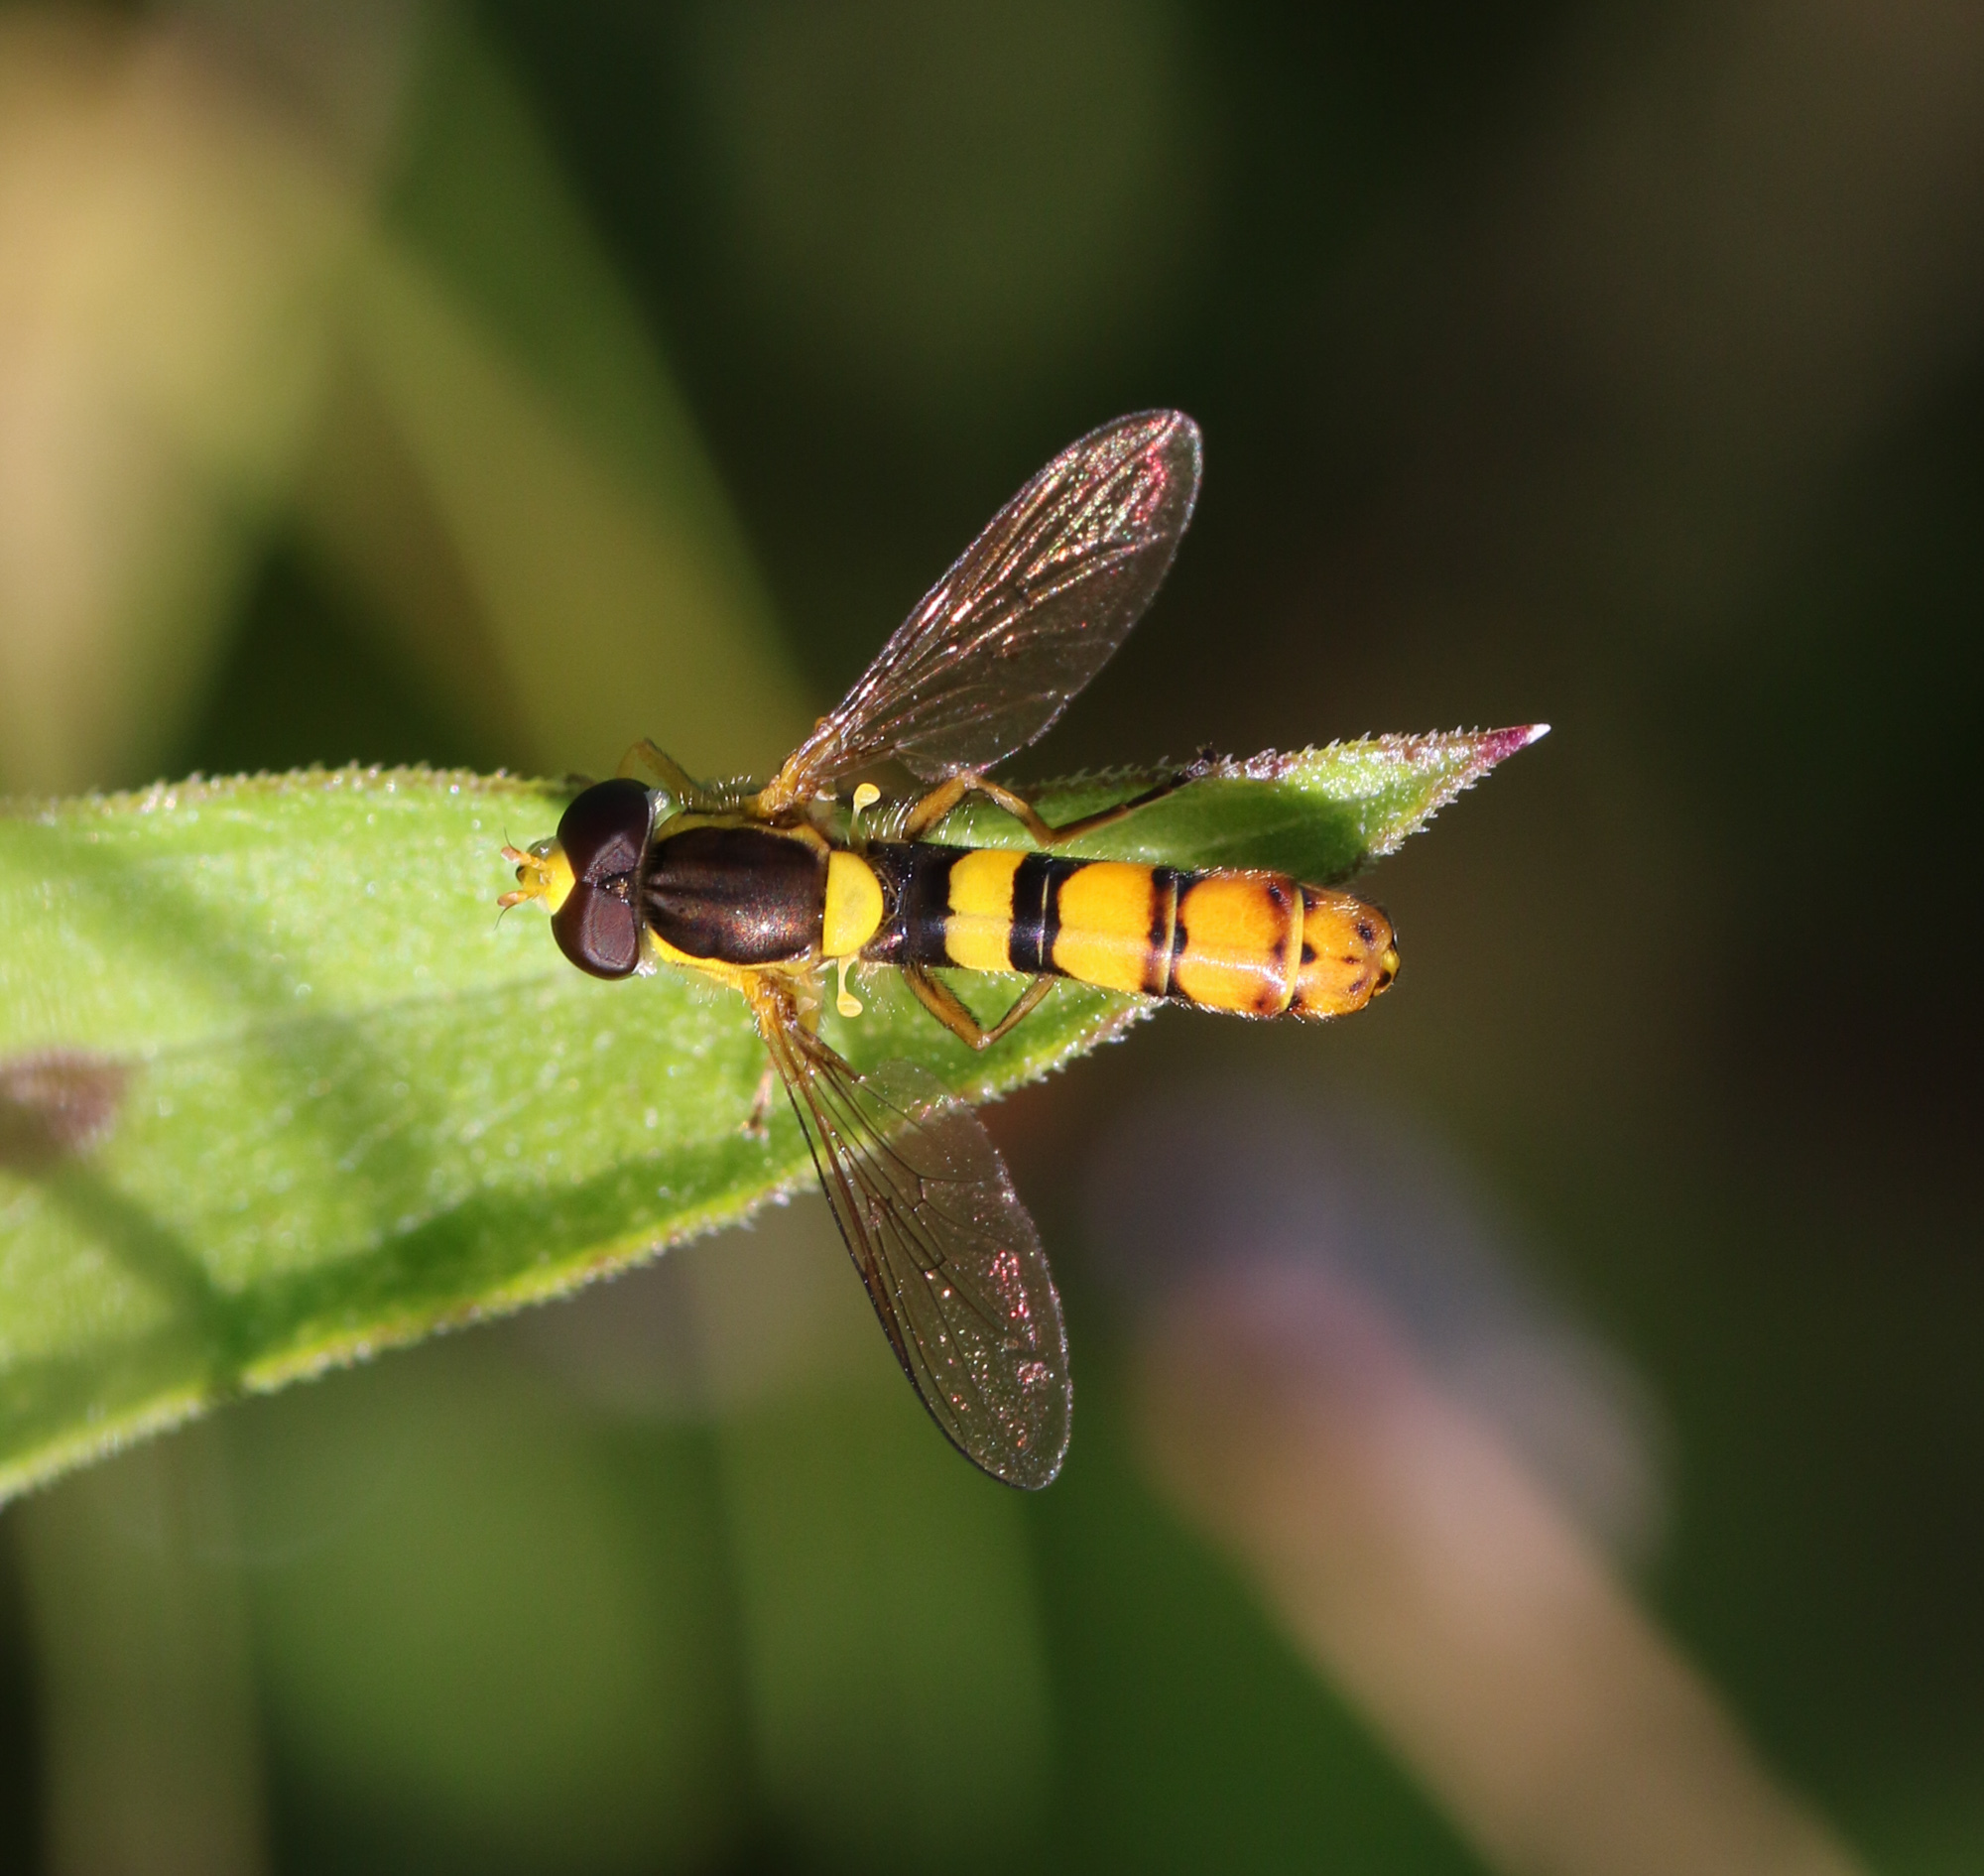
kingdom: Animalia
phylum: Arthropoda
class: Insecta
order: Diptera
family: Syrphidae
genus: Sphaerophoria
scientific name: Sphaerophoria
